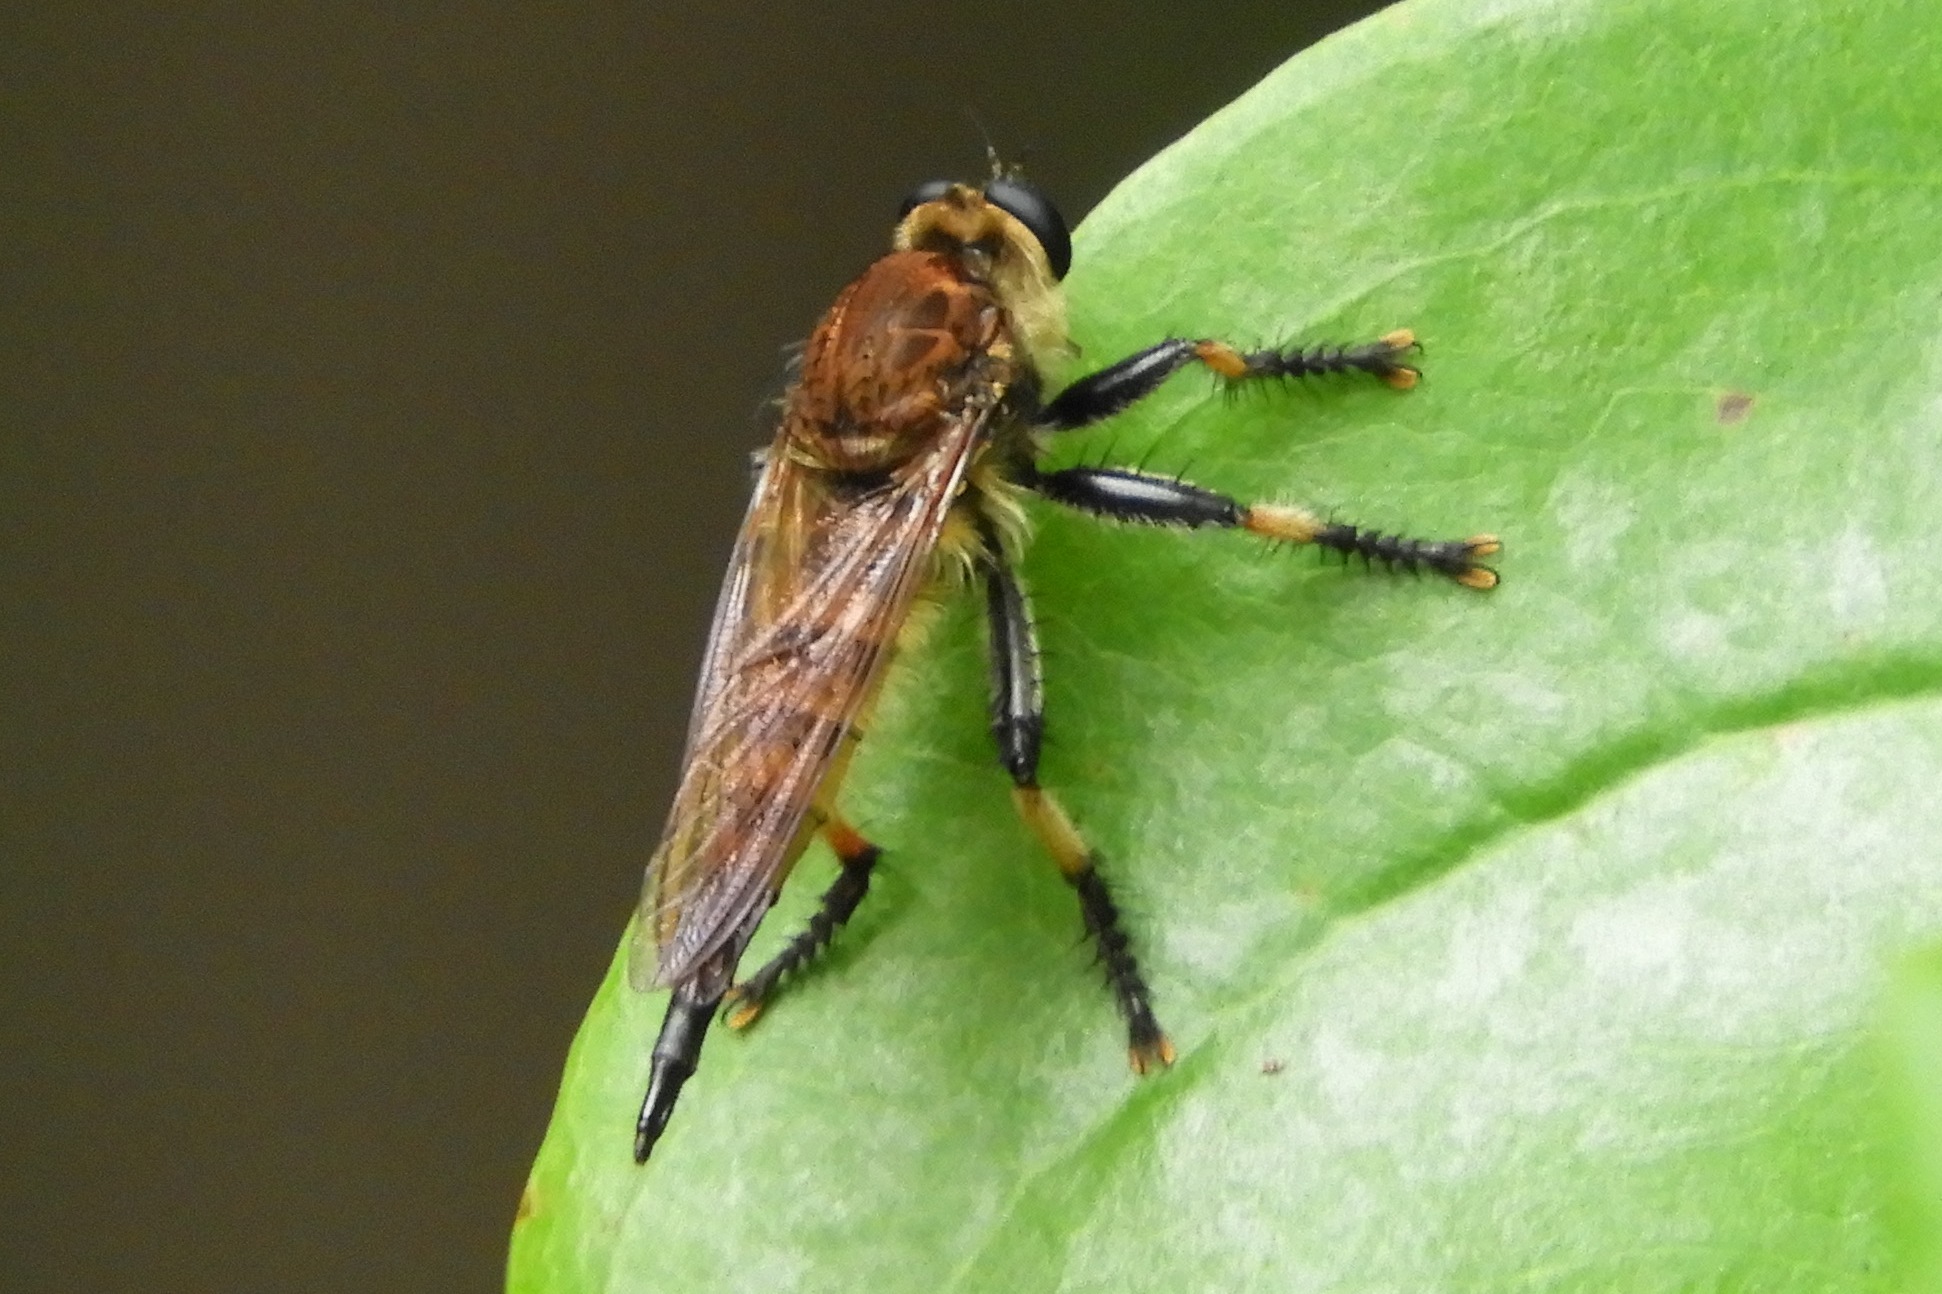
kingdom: Animalia
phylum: Arthropoda
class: Insecta
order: Diptera
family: Asilidae
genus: Promachus
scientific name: Promachus rufipes
